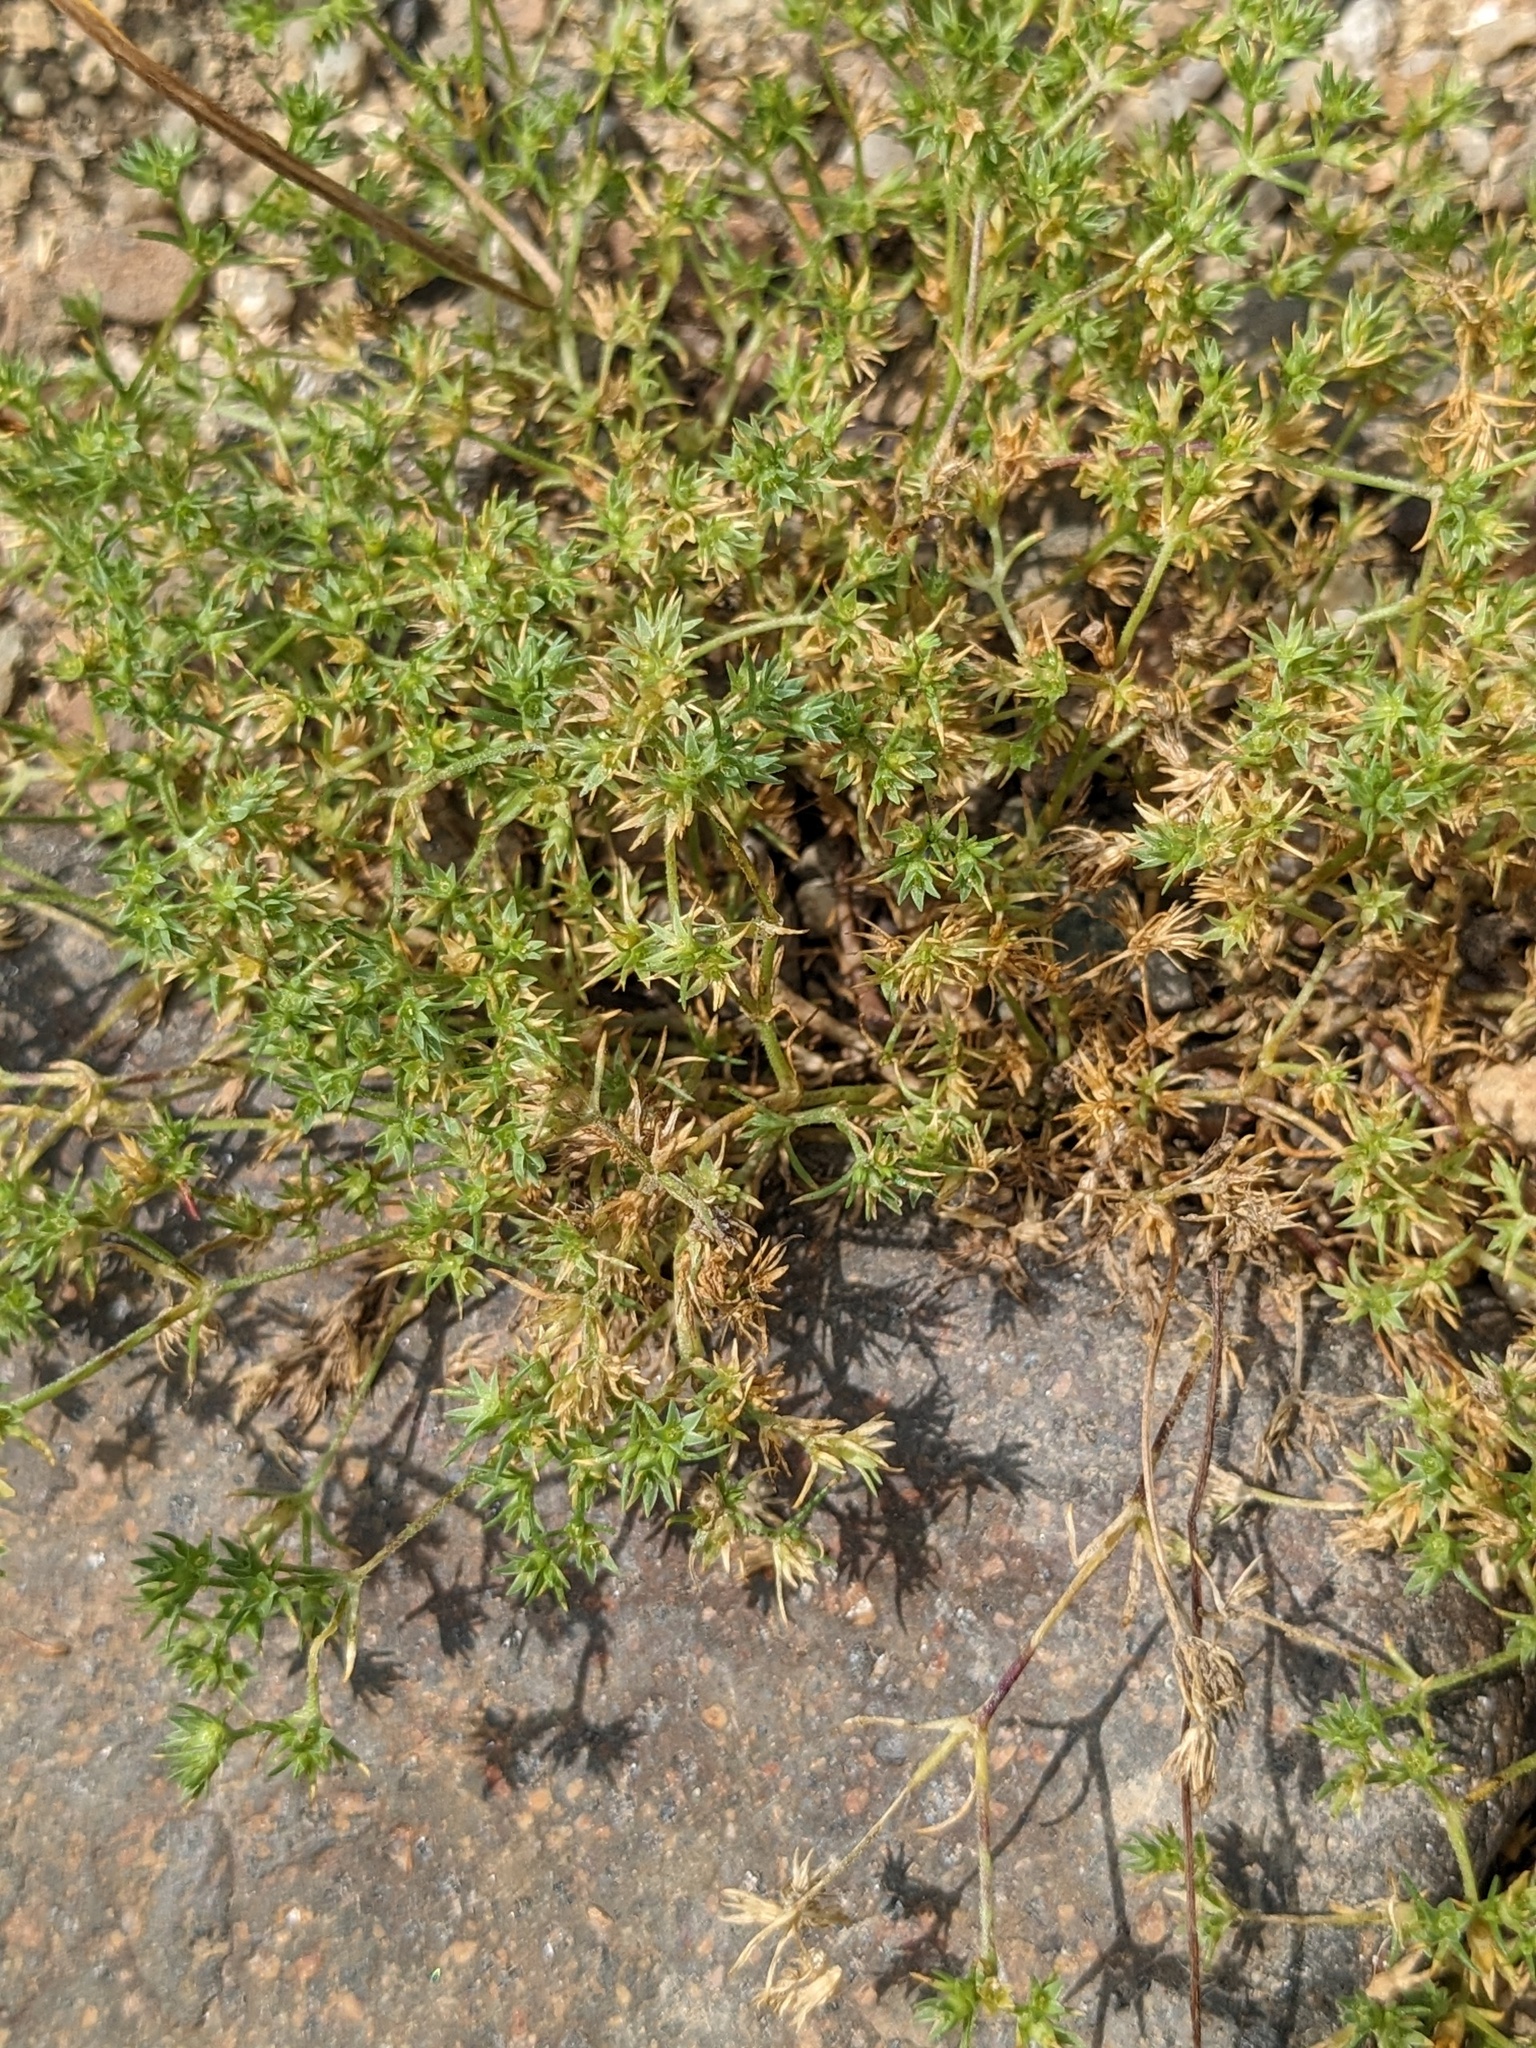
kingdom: Plantae
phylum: Tracheophyta
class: Magnoliopsida
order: Caryophyllales
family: Caryophyllaceae
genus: Scleranthus
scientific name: Scleranthus annuus
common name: Annual knawel
